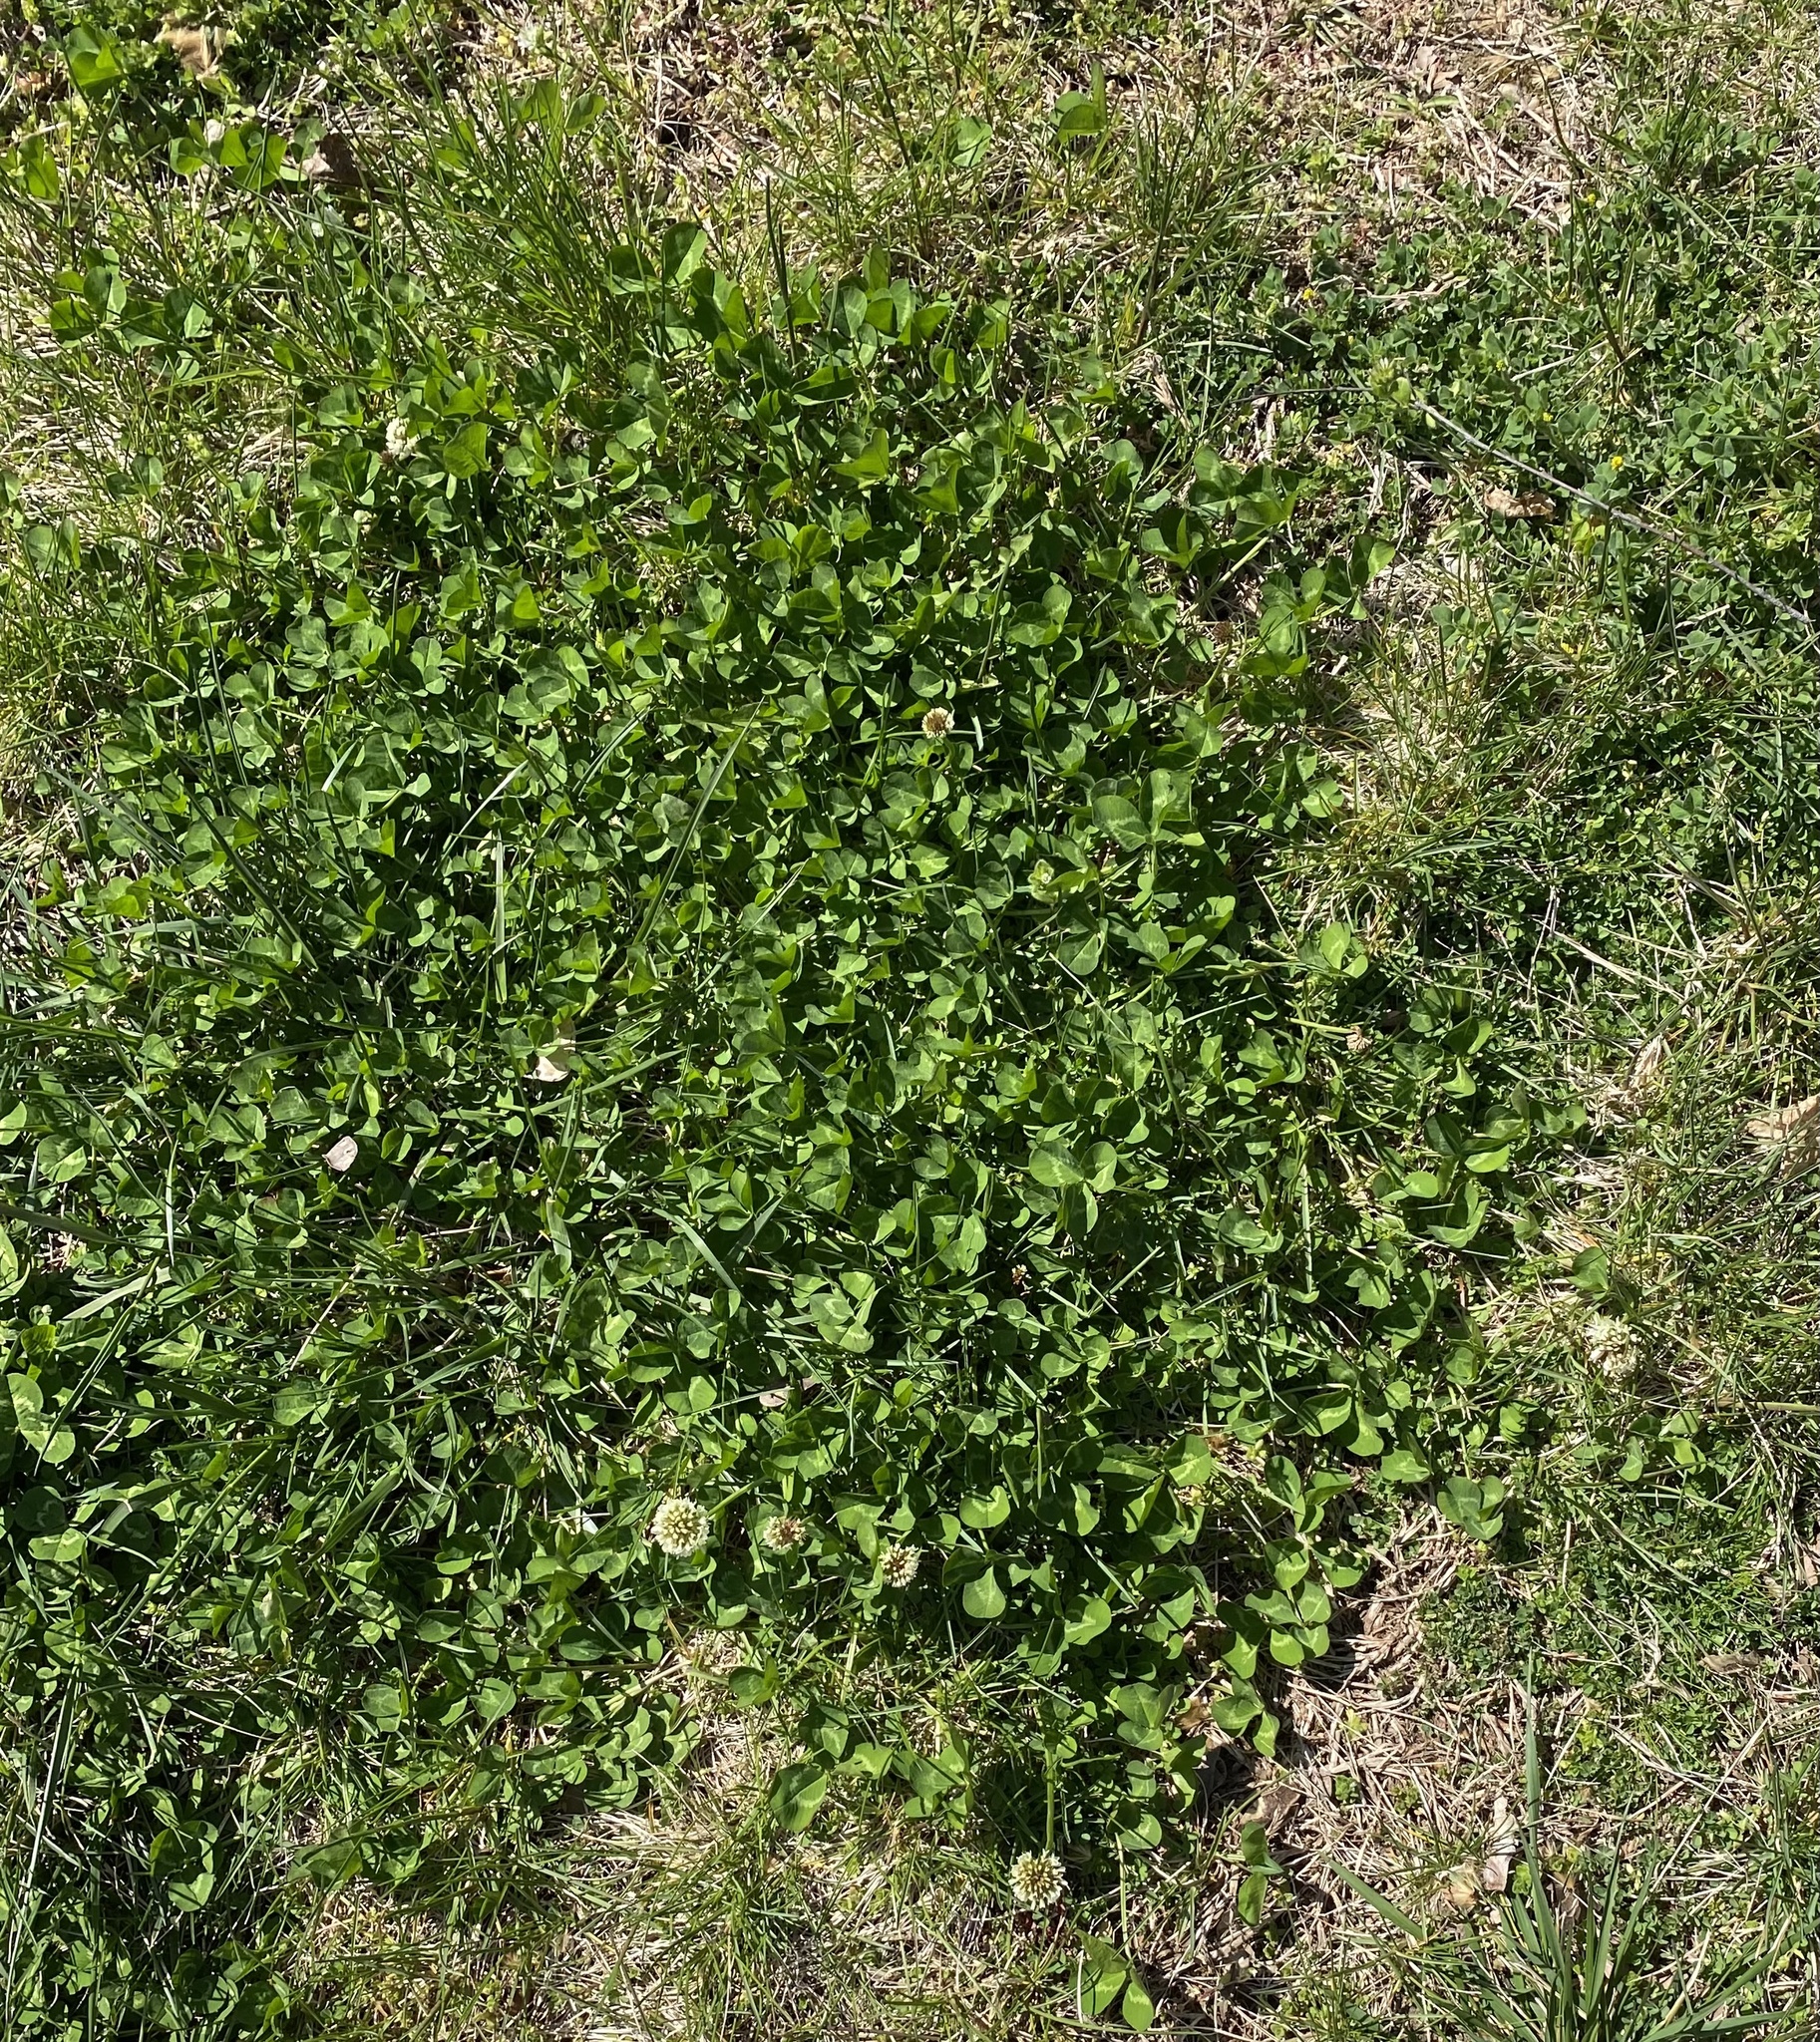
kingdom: Plantae
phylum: Tracheophyta
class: Magnoliopsida
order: Fabales
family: Fabaceae
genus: Trifolium
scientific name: Trifolium repens
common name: White clover
